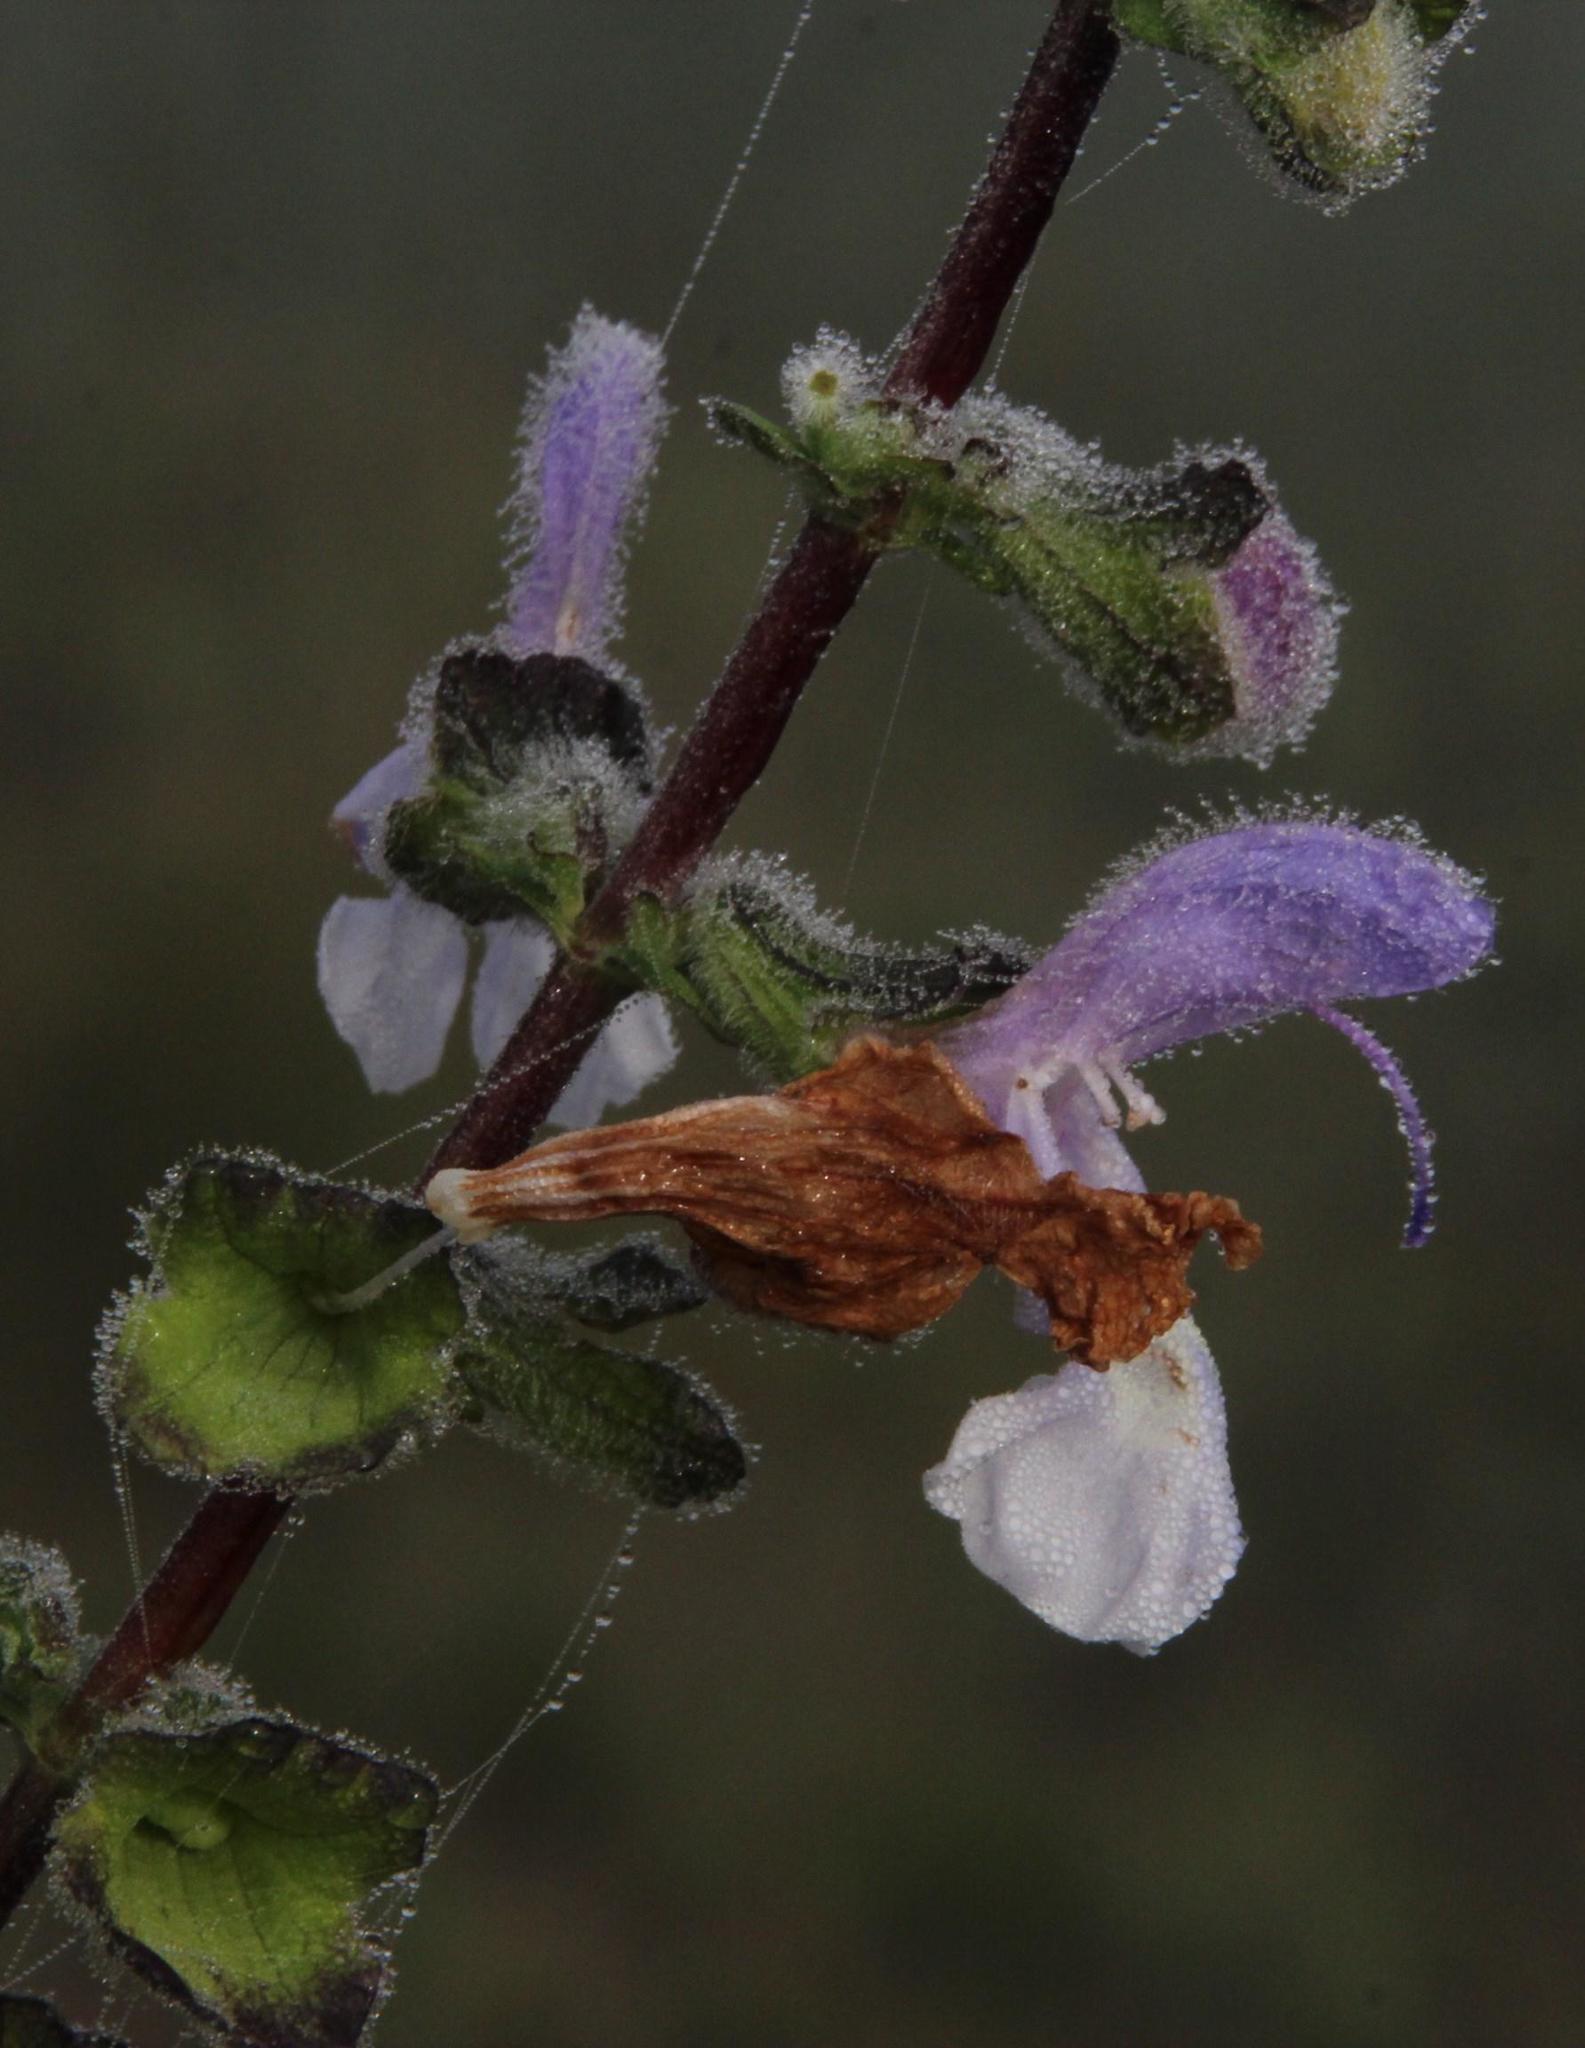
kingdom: Plantae
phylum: Tracheophyta
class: Magnoliopsida
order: Lamiales
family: Lamiaceae
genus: Salvia
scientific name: Salvia africana
